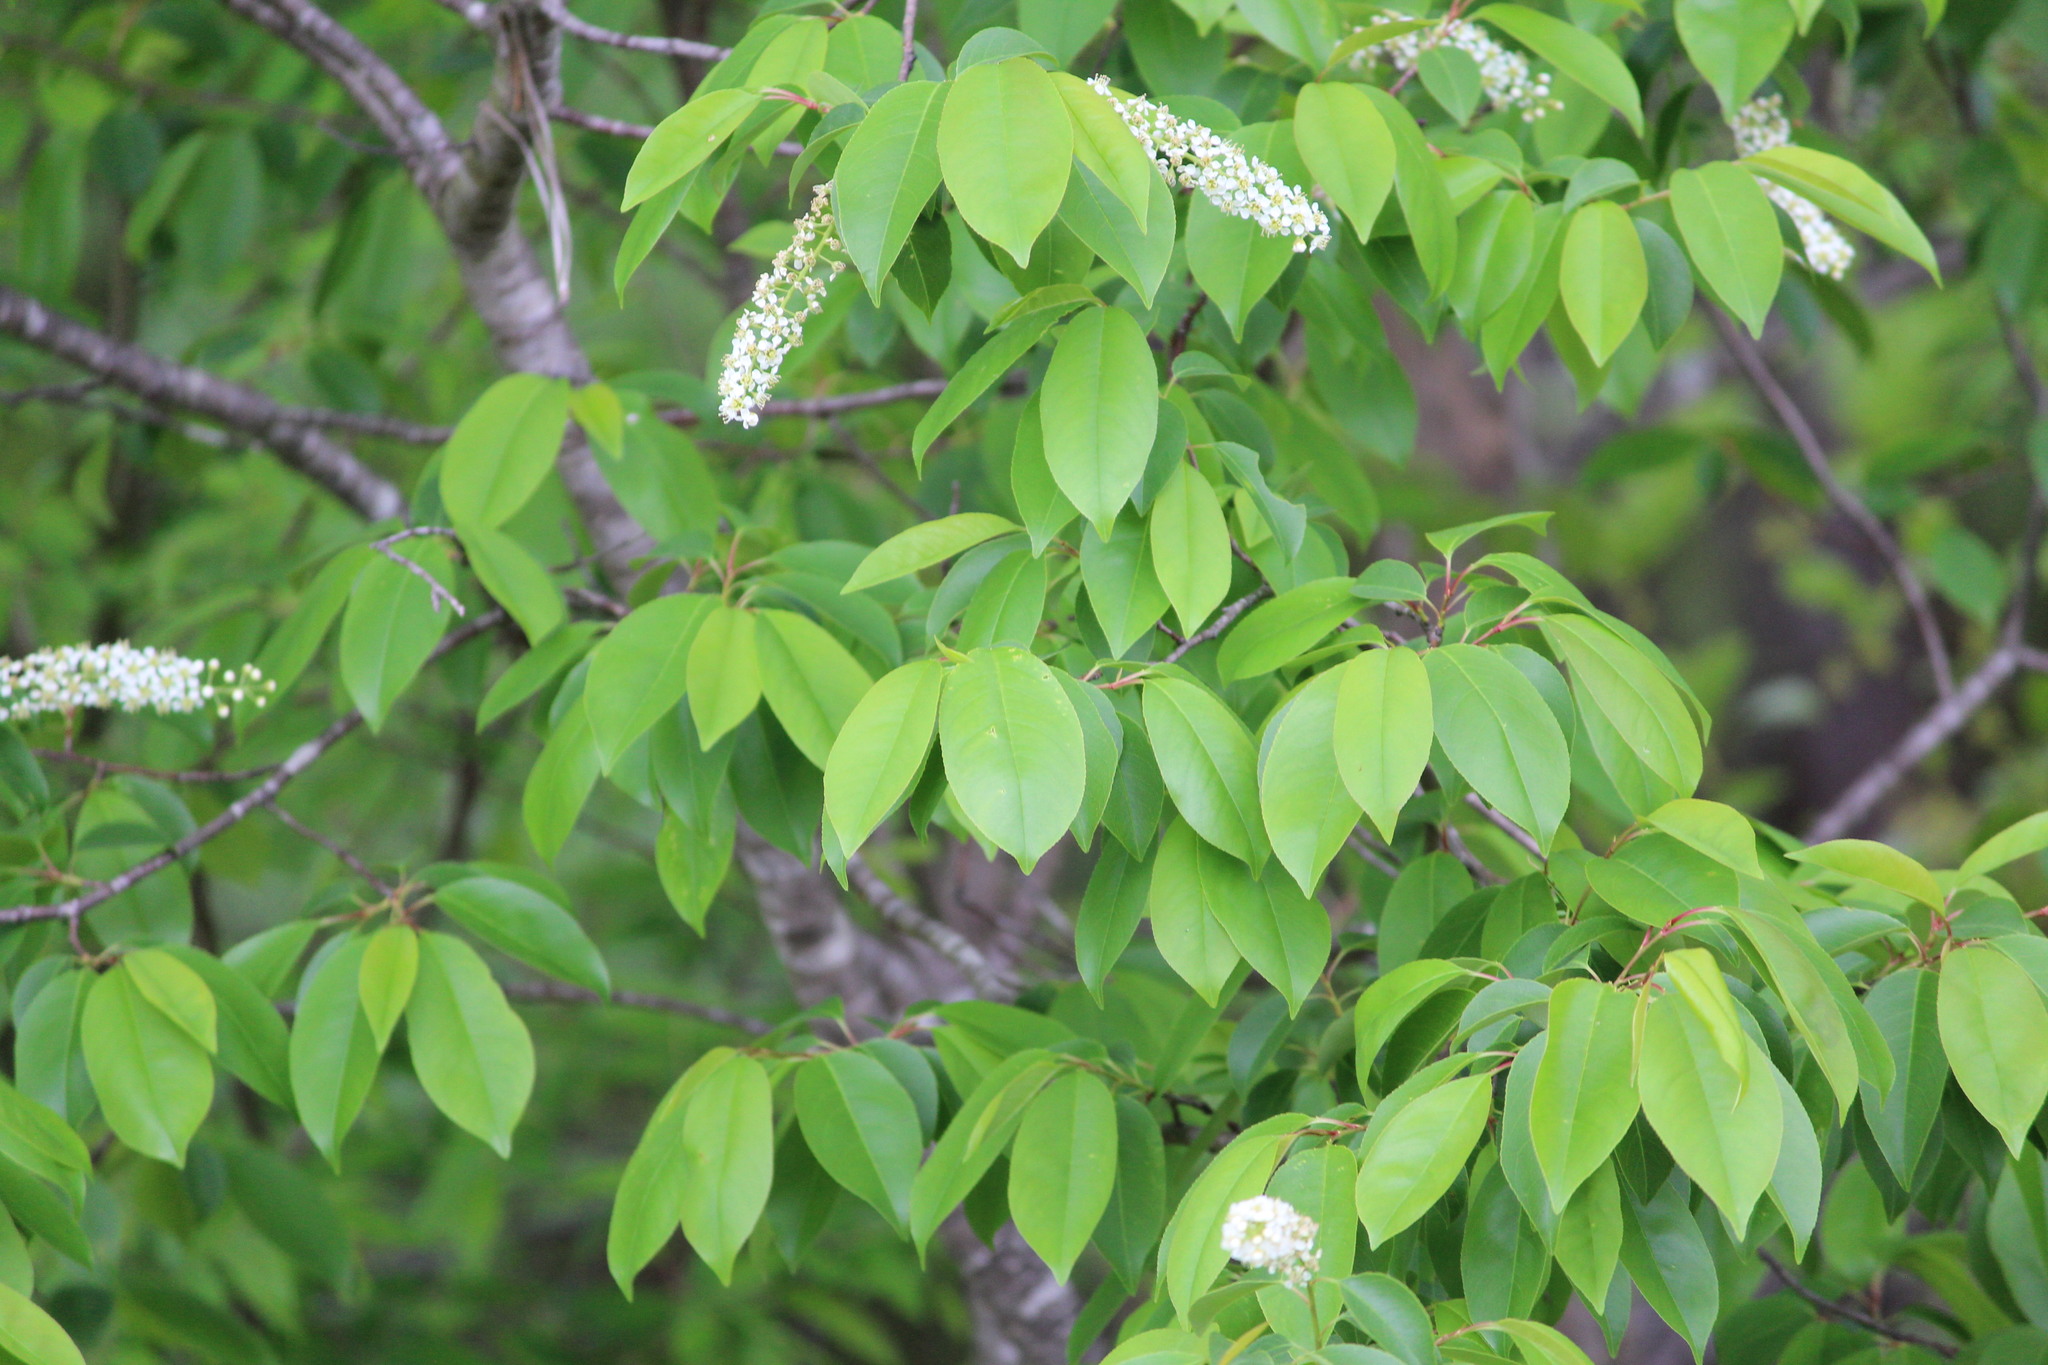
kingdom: Plantae
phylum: Tracheophyta
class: Magnoliopsida
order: Rosales
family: Rosaceae
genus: Prunus
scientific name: Prunus serotina
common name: Black cherry
